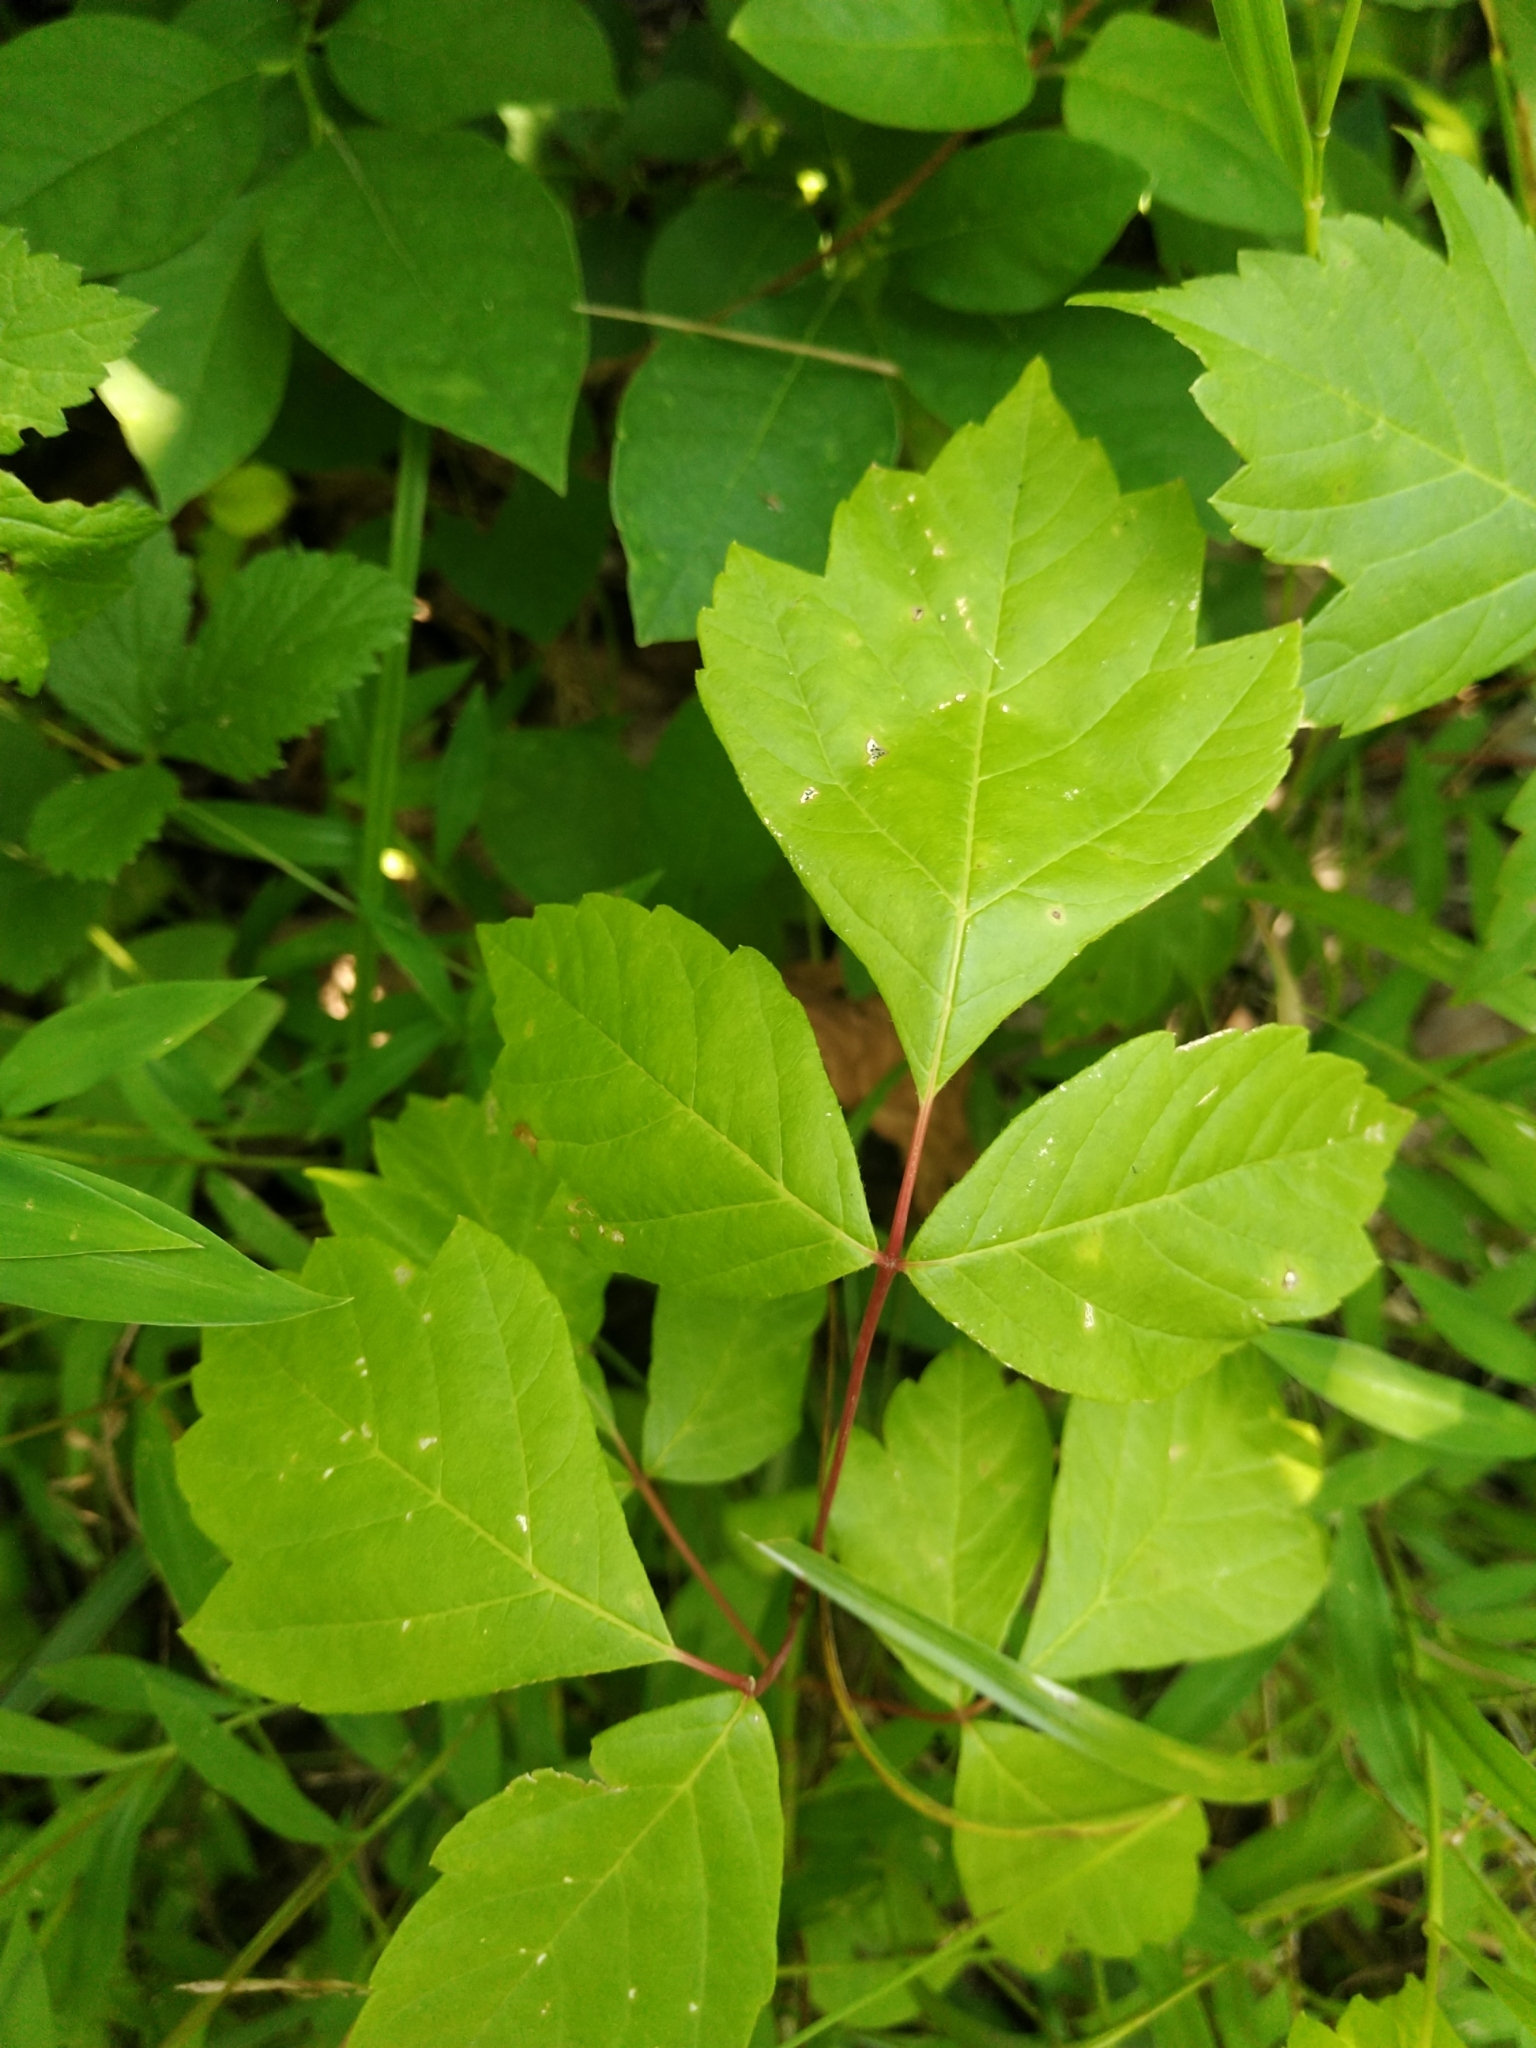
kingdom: Plantae
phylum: Tracheophyta
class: Magnoliopsida
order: Sapindales
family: Anacardiaceae
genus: Toxicodendron
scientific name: Toxicodendron radicans
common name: Poison ivy
